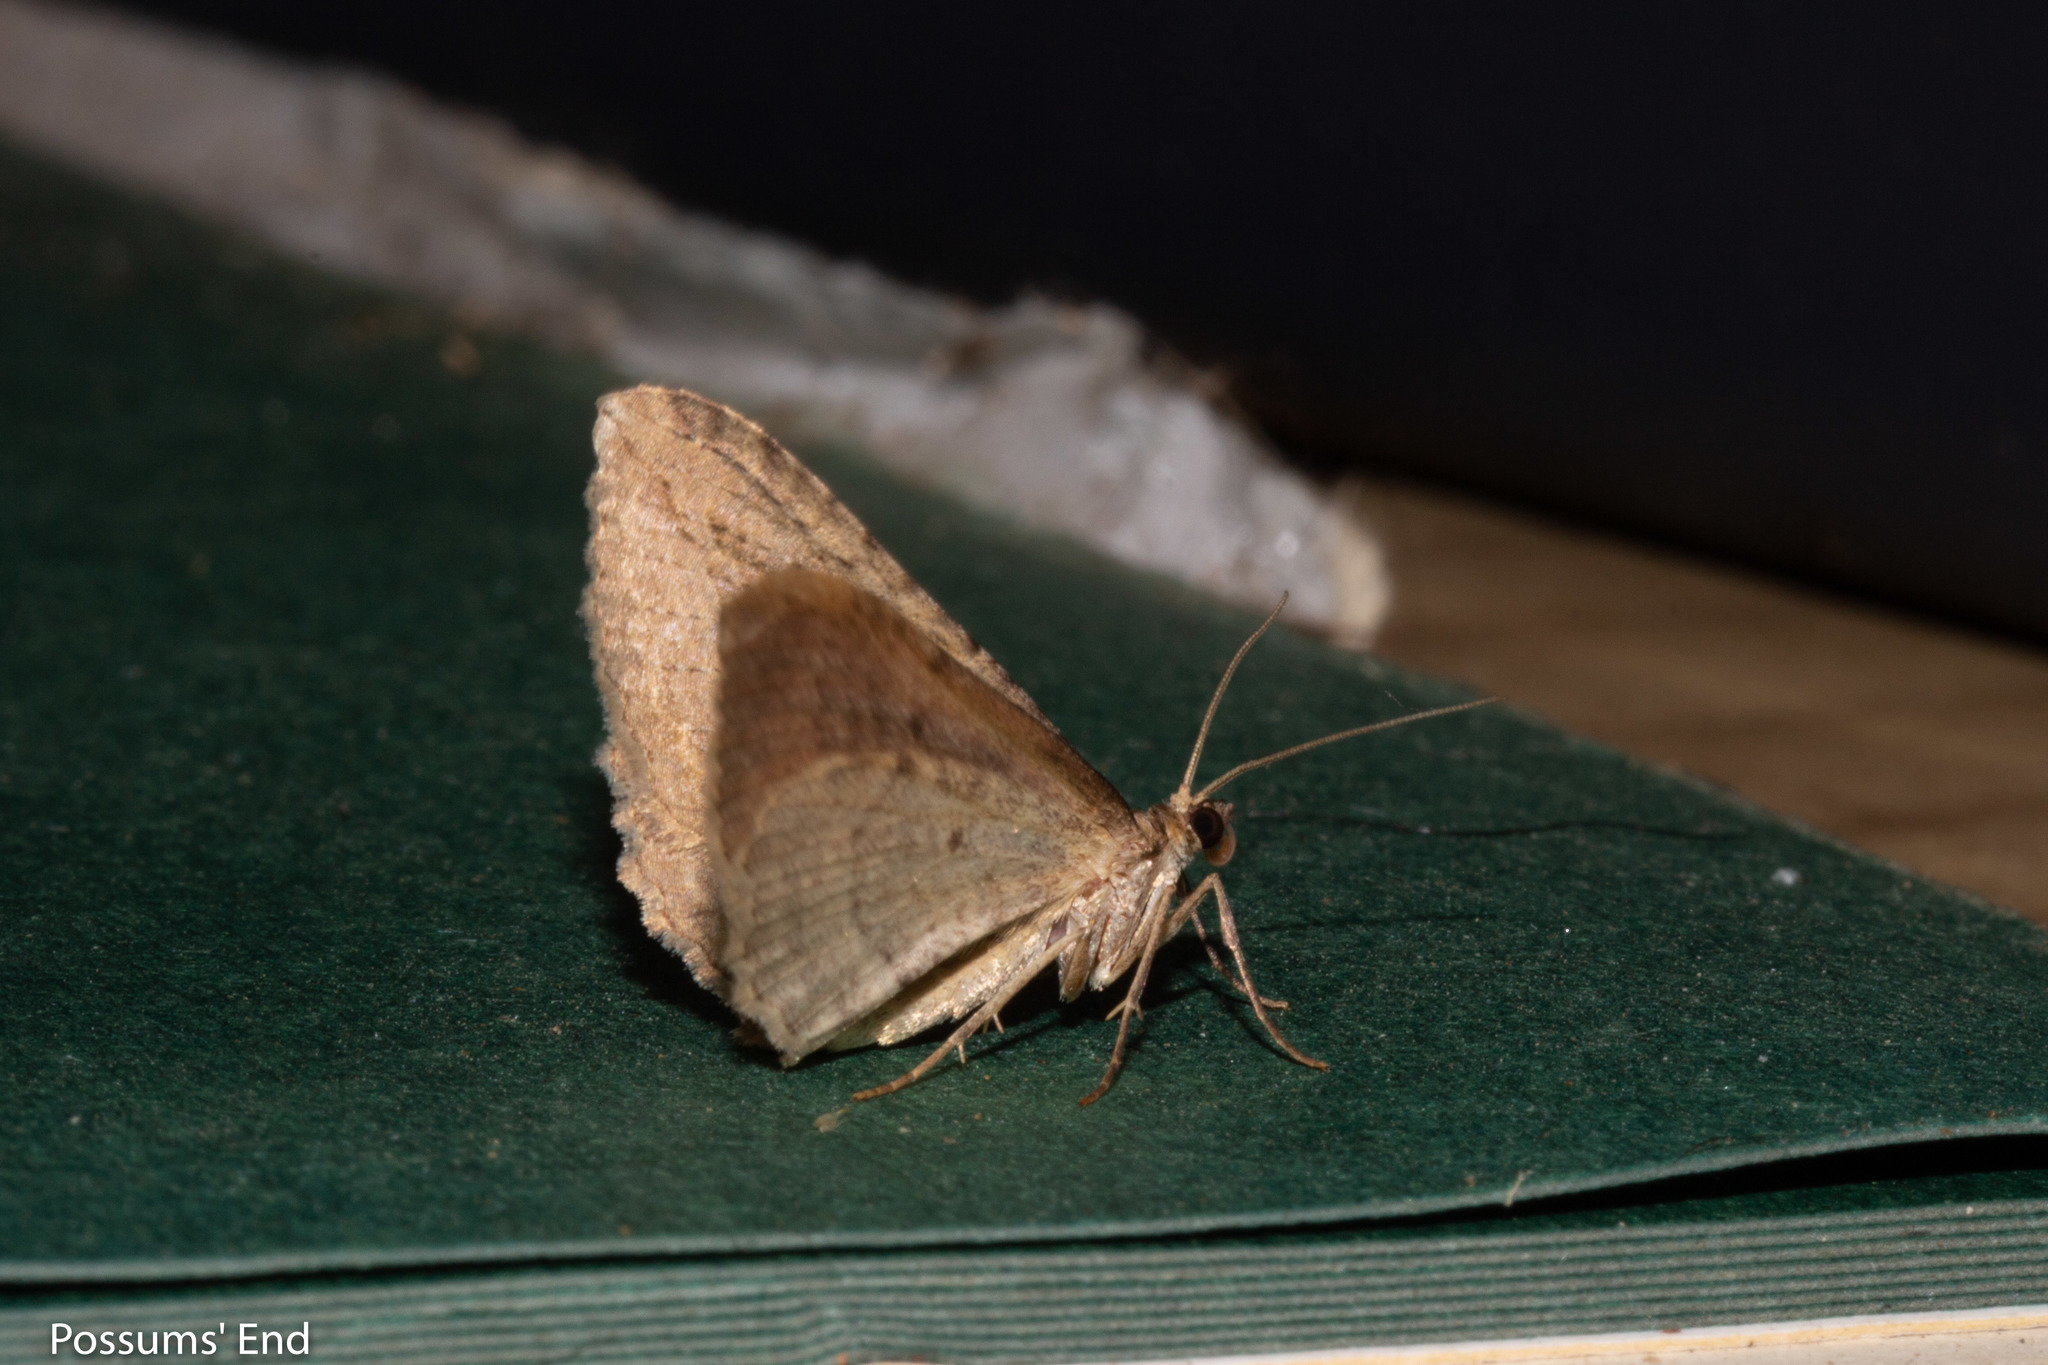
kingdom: Animalia
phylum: Arthropoda
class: Insecta
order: Lepidoptera
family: Geometridae
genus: Austrocidaria
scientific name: Austrocidaria gobiata
